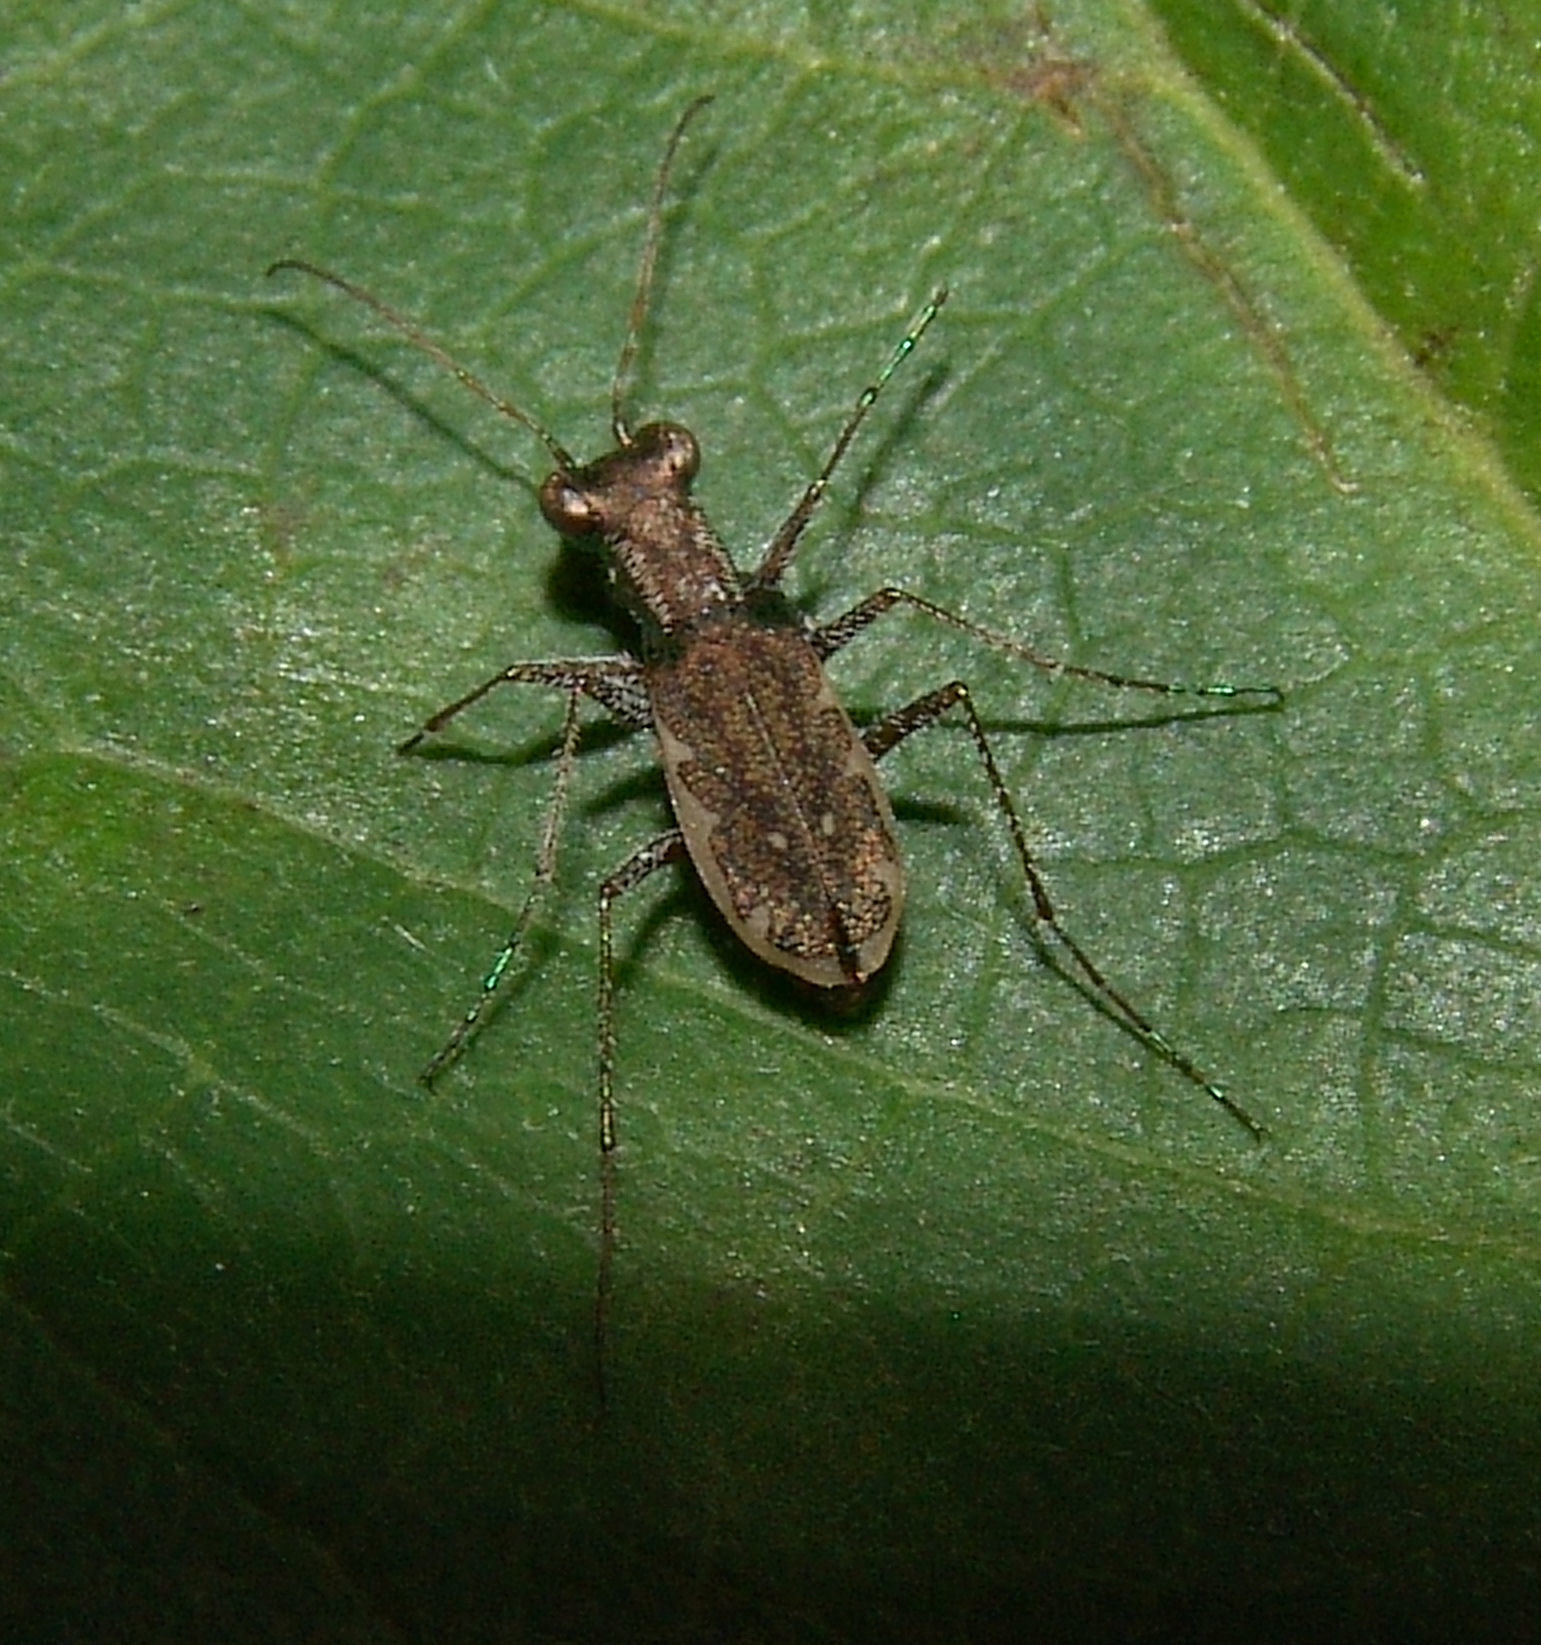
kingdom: Animalia
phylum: Arthropoda
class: Insecta
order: Coleoptera
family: Carabidae
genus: Cylindera
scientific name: Cylindera cursitans
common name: Ant-like tiger beetle
